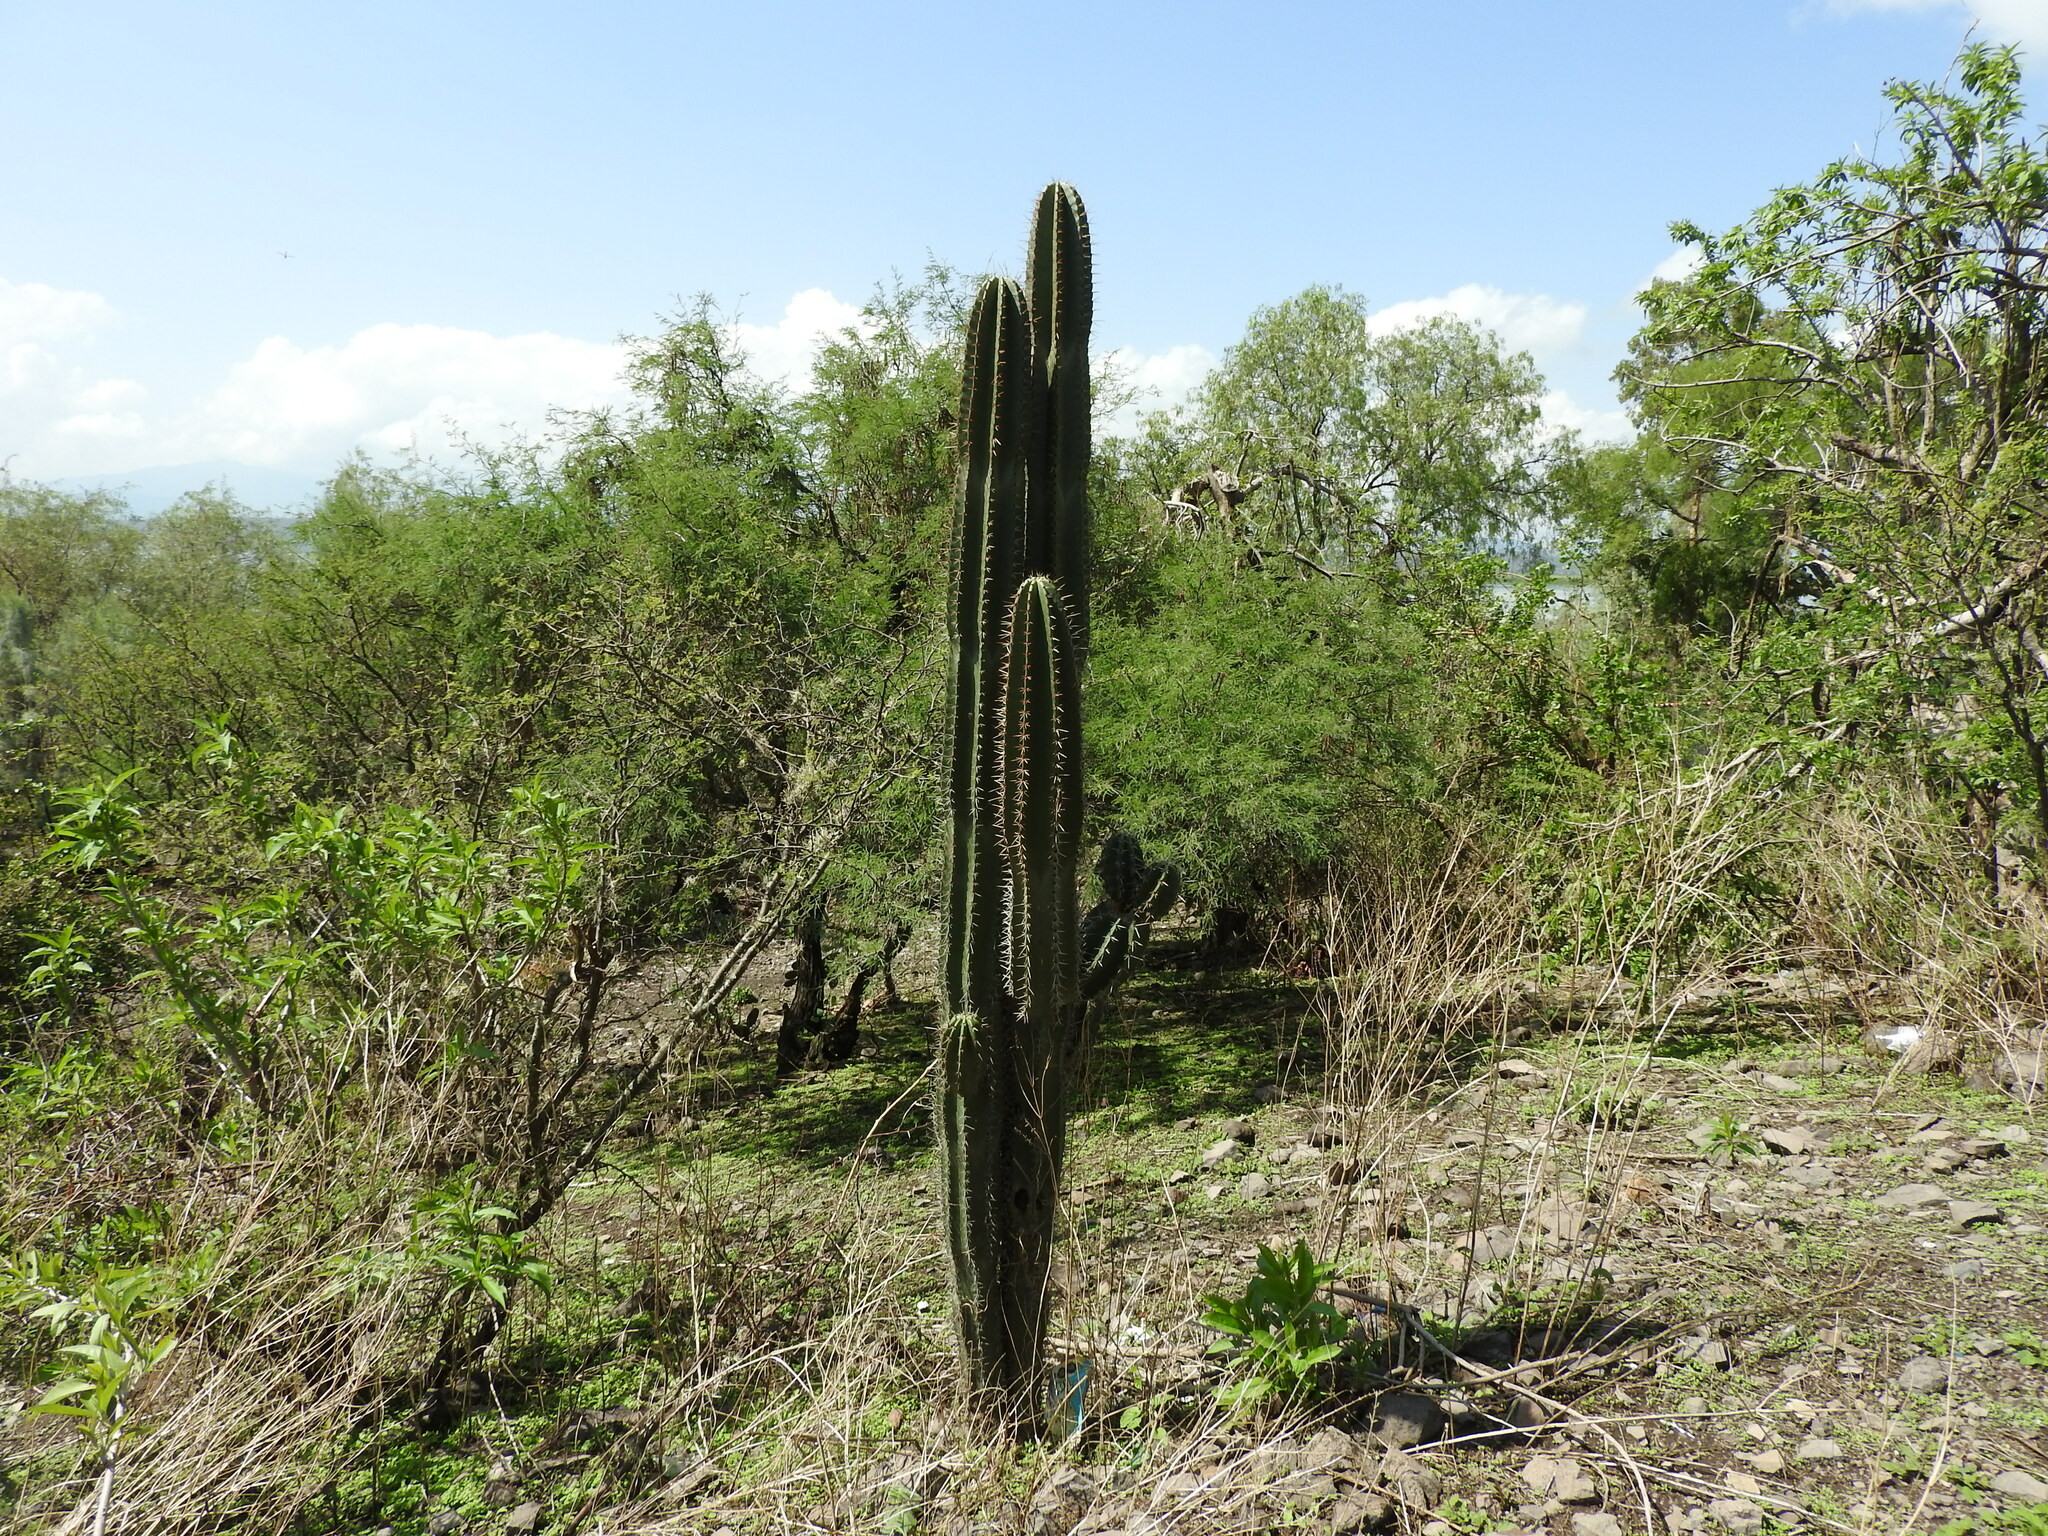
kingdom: Plantae
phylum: Tracheophyta
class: Magnoliopsida
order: Caryophyllales
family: Cactaceae
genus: Stenocereus
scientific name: Stenocereus queretaroensis
